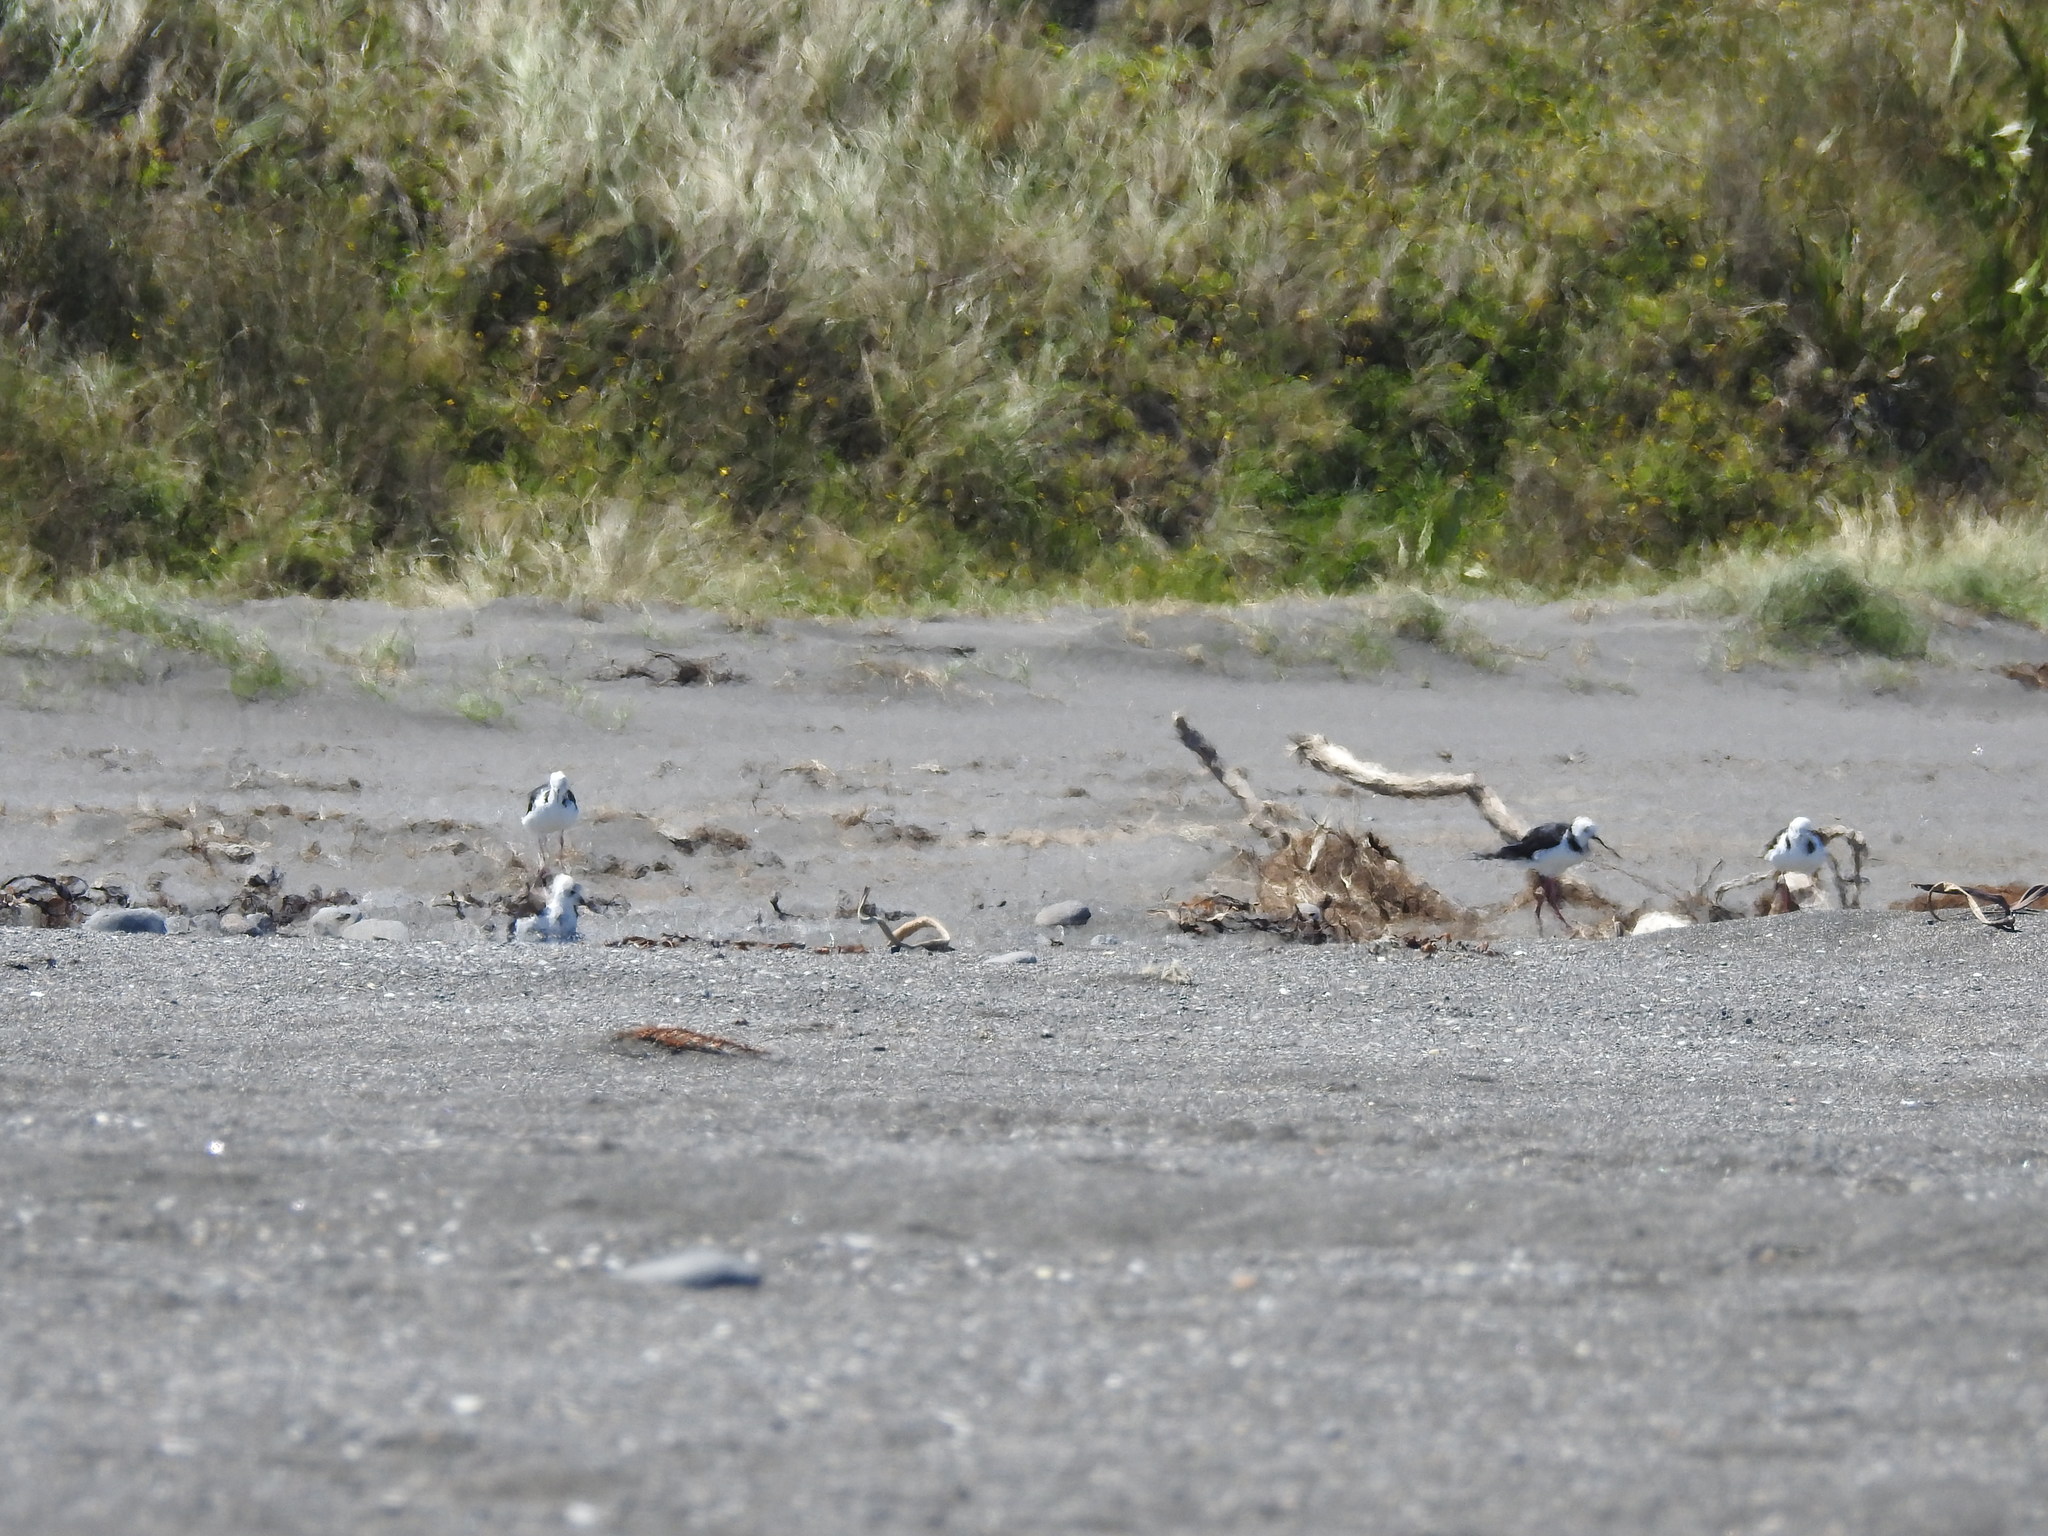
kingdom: Animalia
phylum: Chordata
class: Aves
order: Charadriiformes
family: Recurvirostridae
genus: Himantopus
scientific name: Himantopus leucocephalus
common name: White-headed stilt
